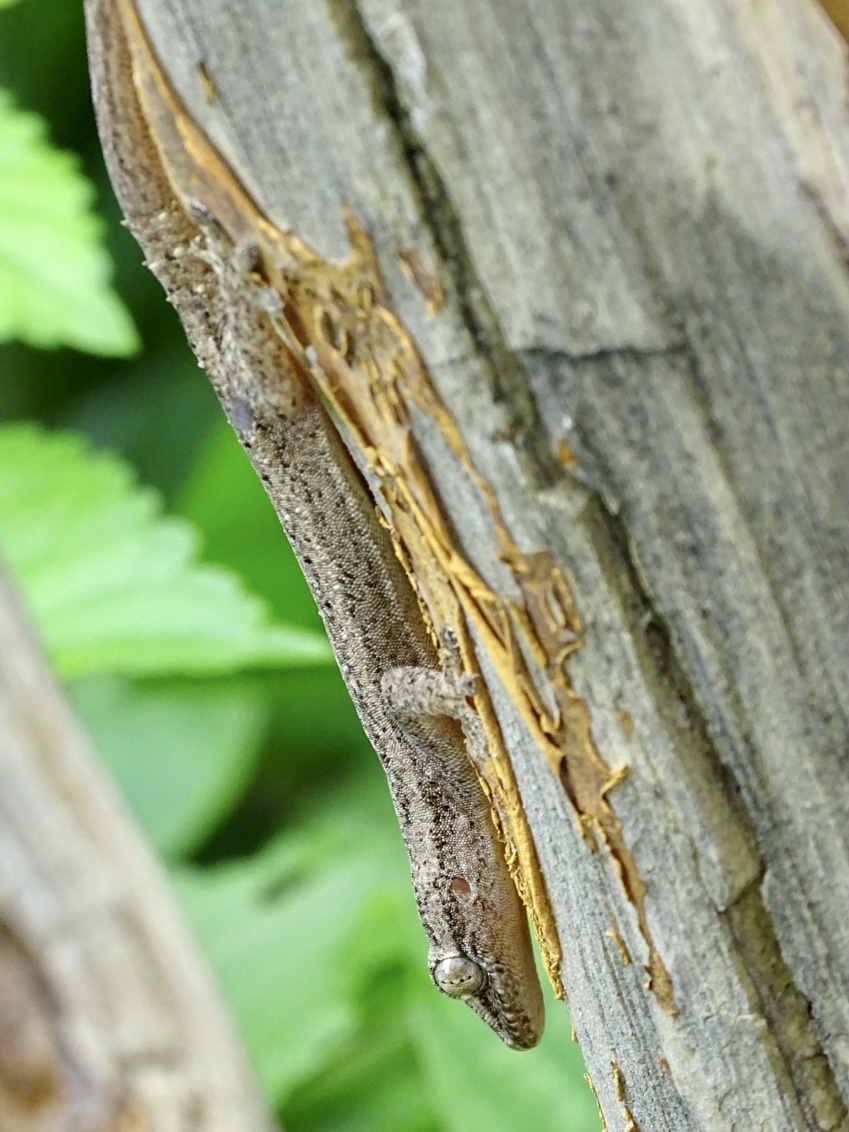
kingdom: Animalia
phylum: Chordata
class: Squamata
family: Gekkonidae
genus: Hemidactylus
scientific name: Hemidactylus frenatus
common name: Common house gecko
